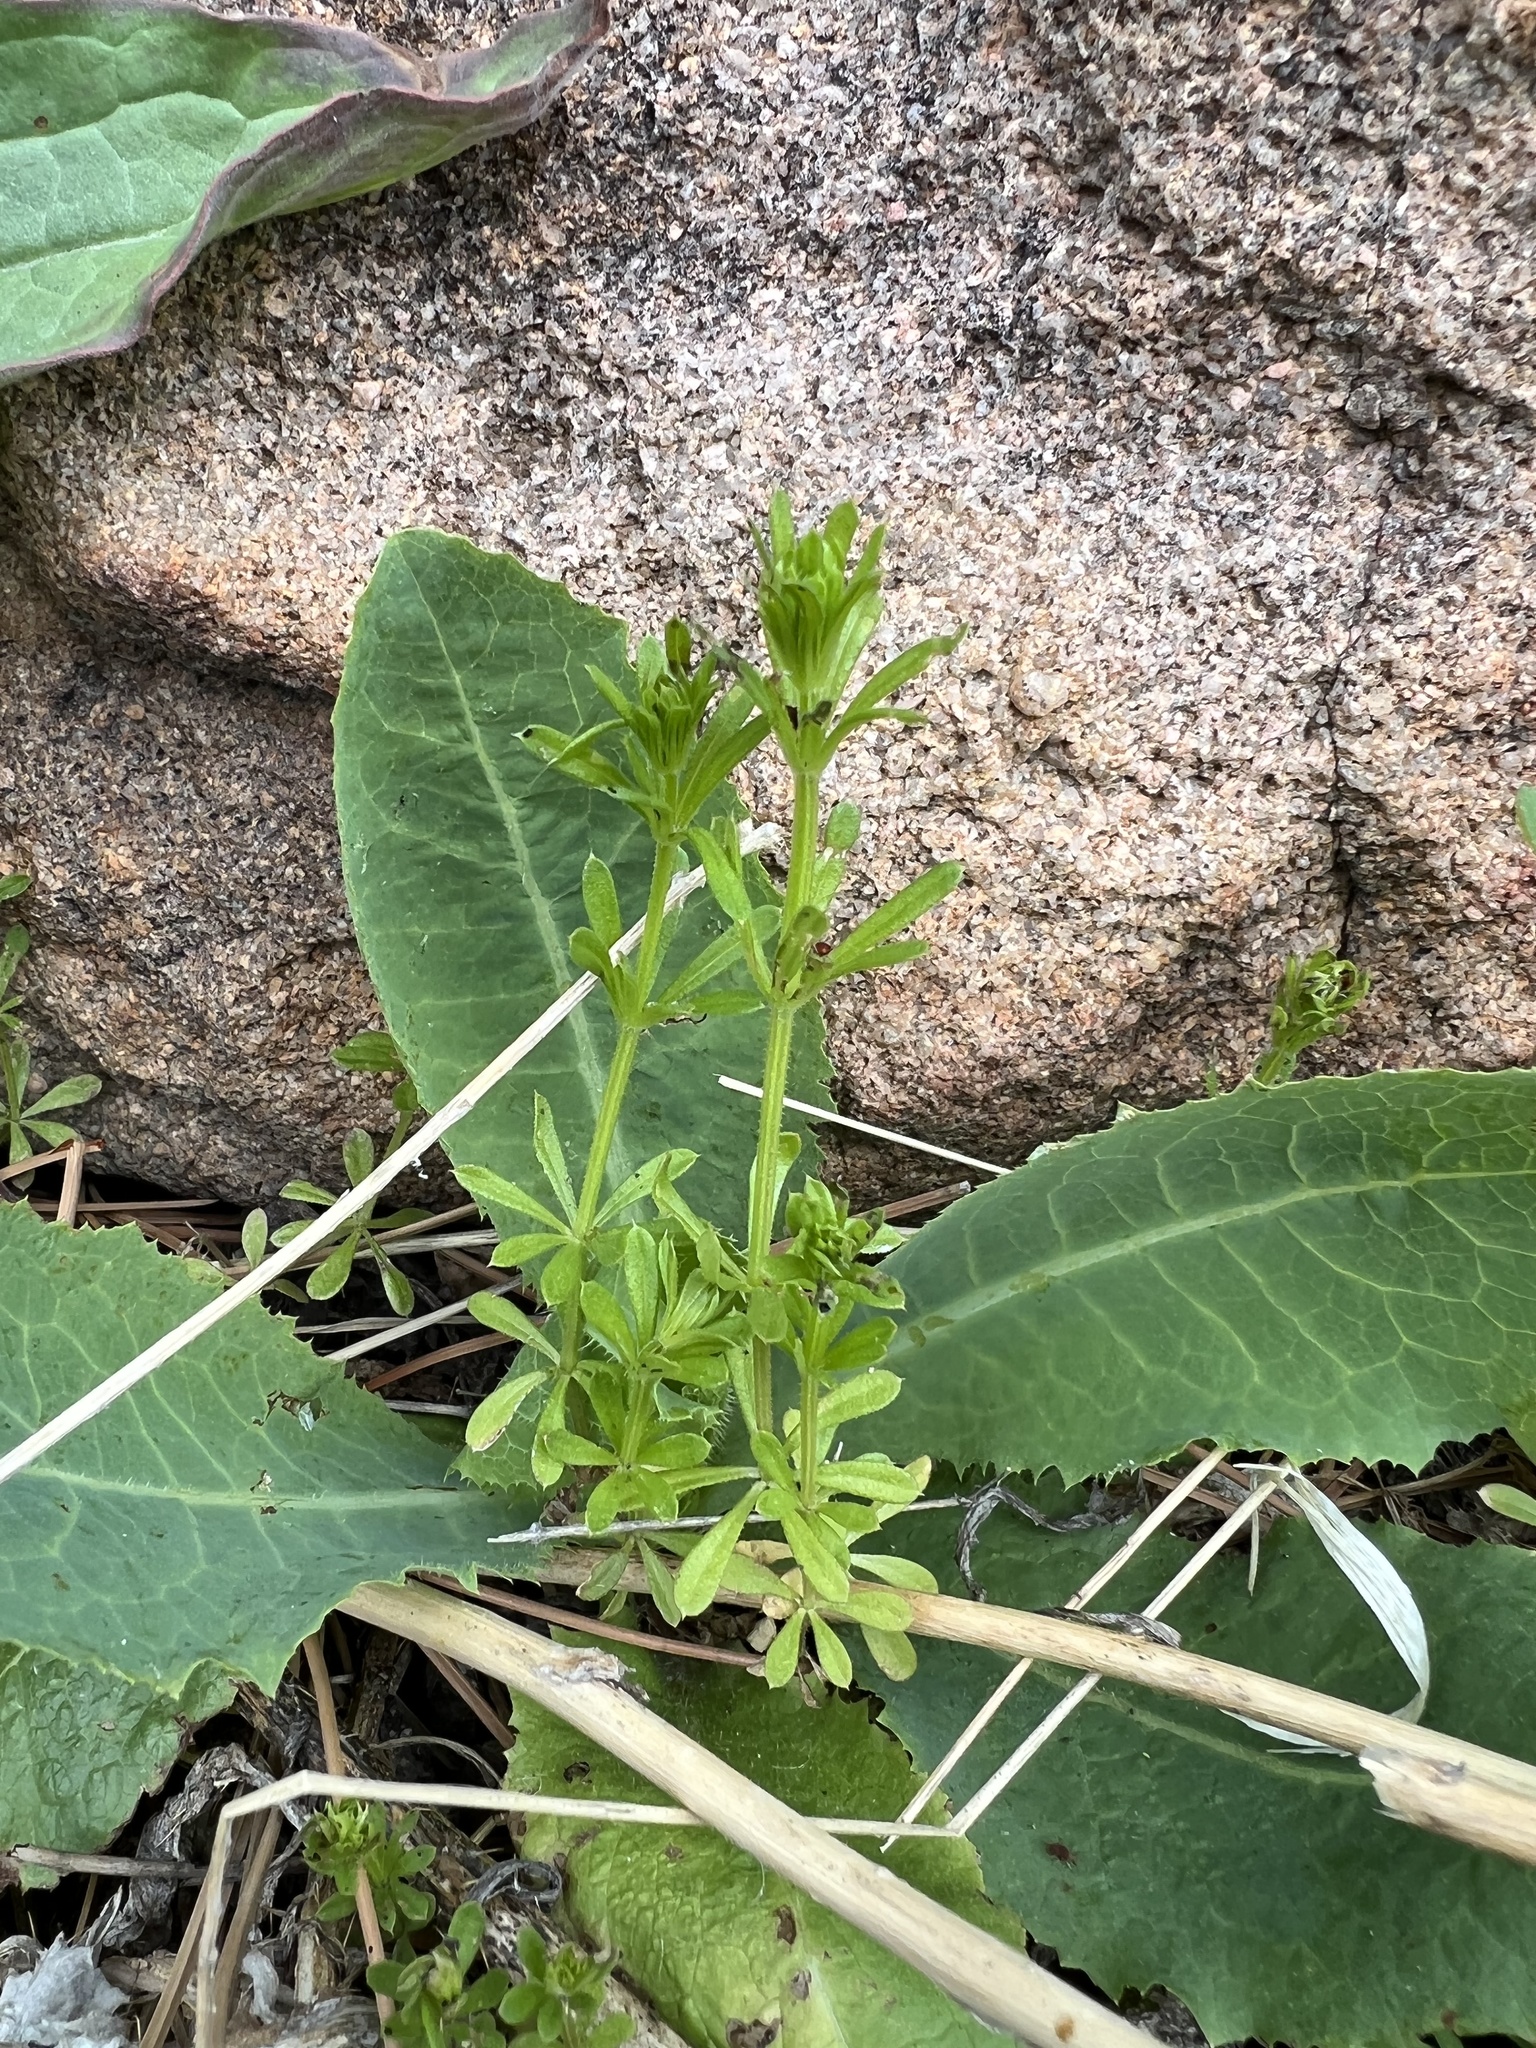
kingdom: Plantae
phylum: Tracheophyta
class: Magnoliopsida
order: Gentianales
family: Rubiaceae
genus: Galium
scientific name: Galium aparine
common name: Cleavers
